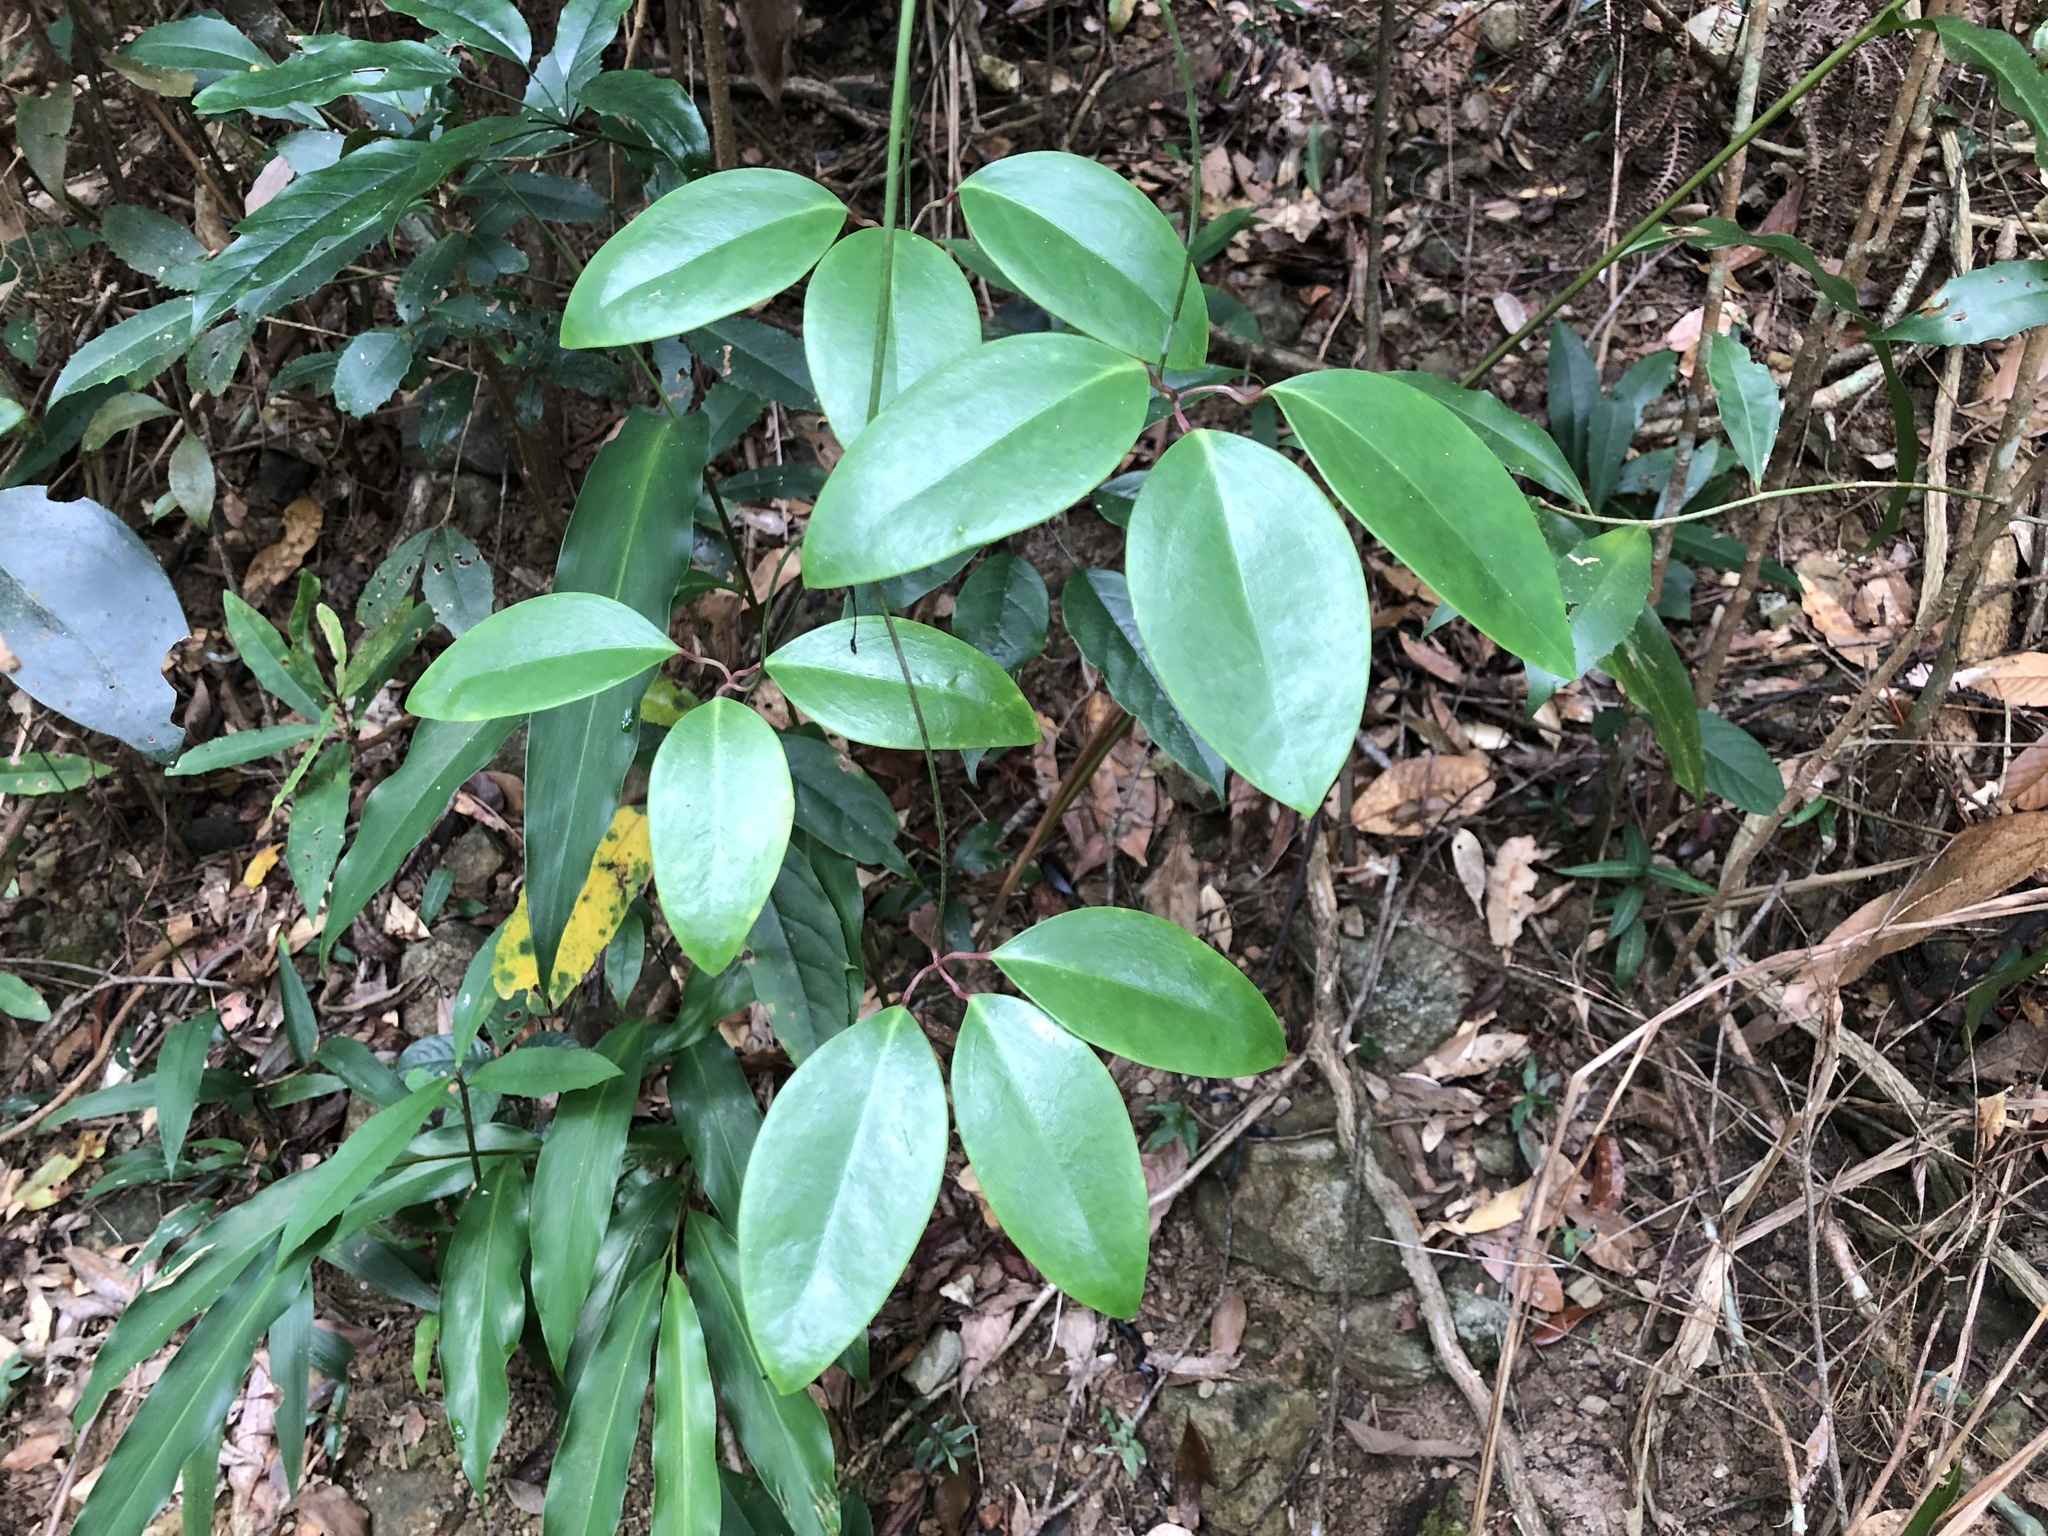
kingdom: Plantae
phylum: Tracheophyta
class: Magnoliopsida
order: Ranunculales
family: Ranunculaceae
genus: Clematis
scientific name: Clematis crassifolia
